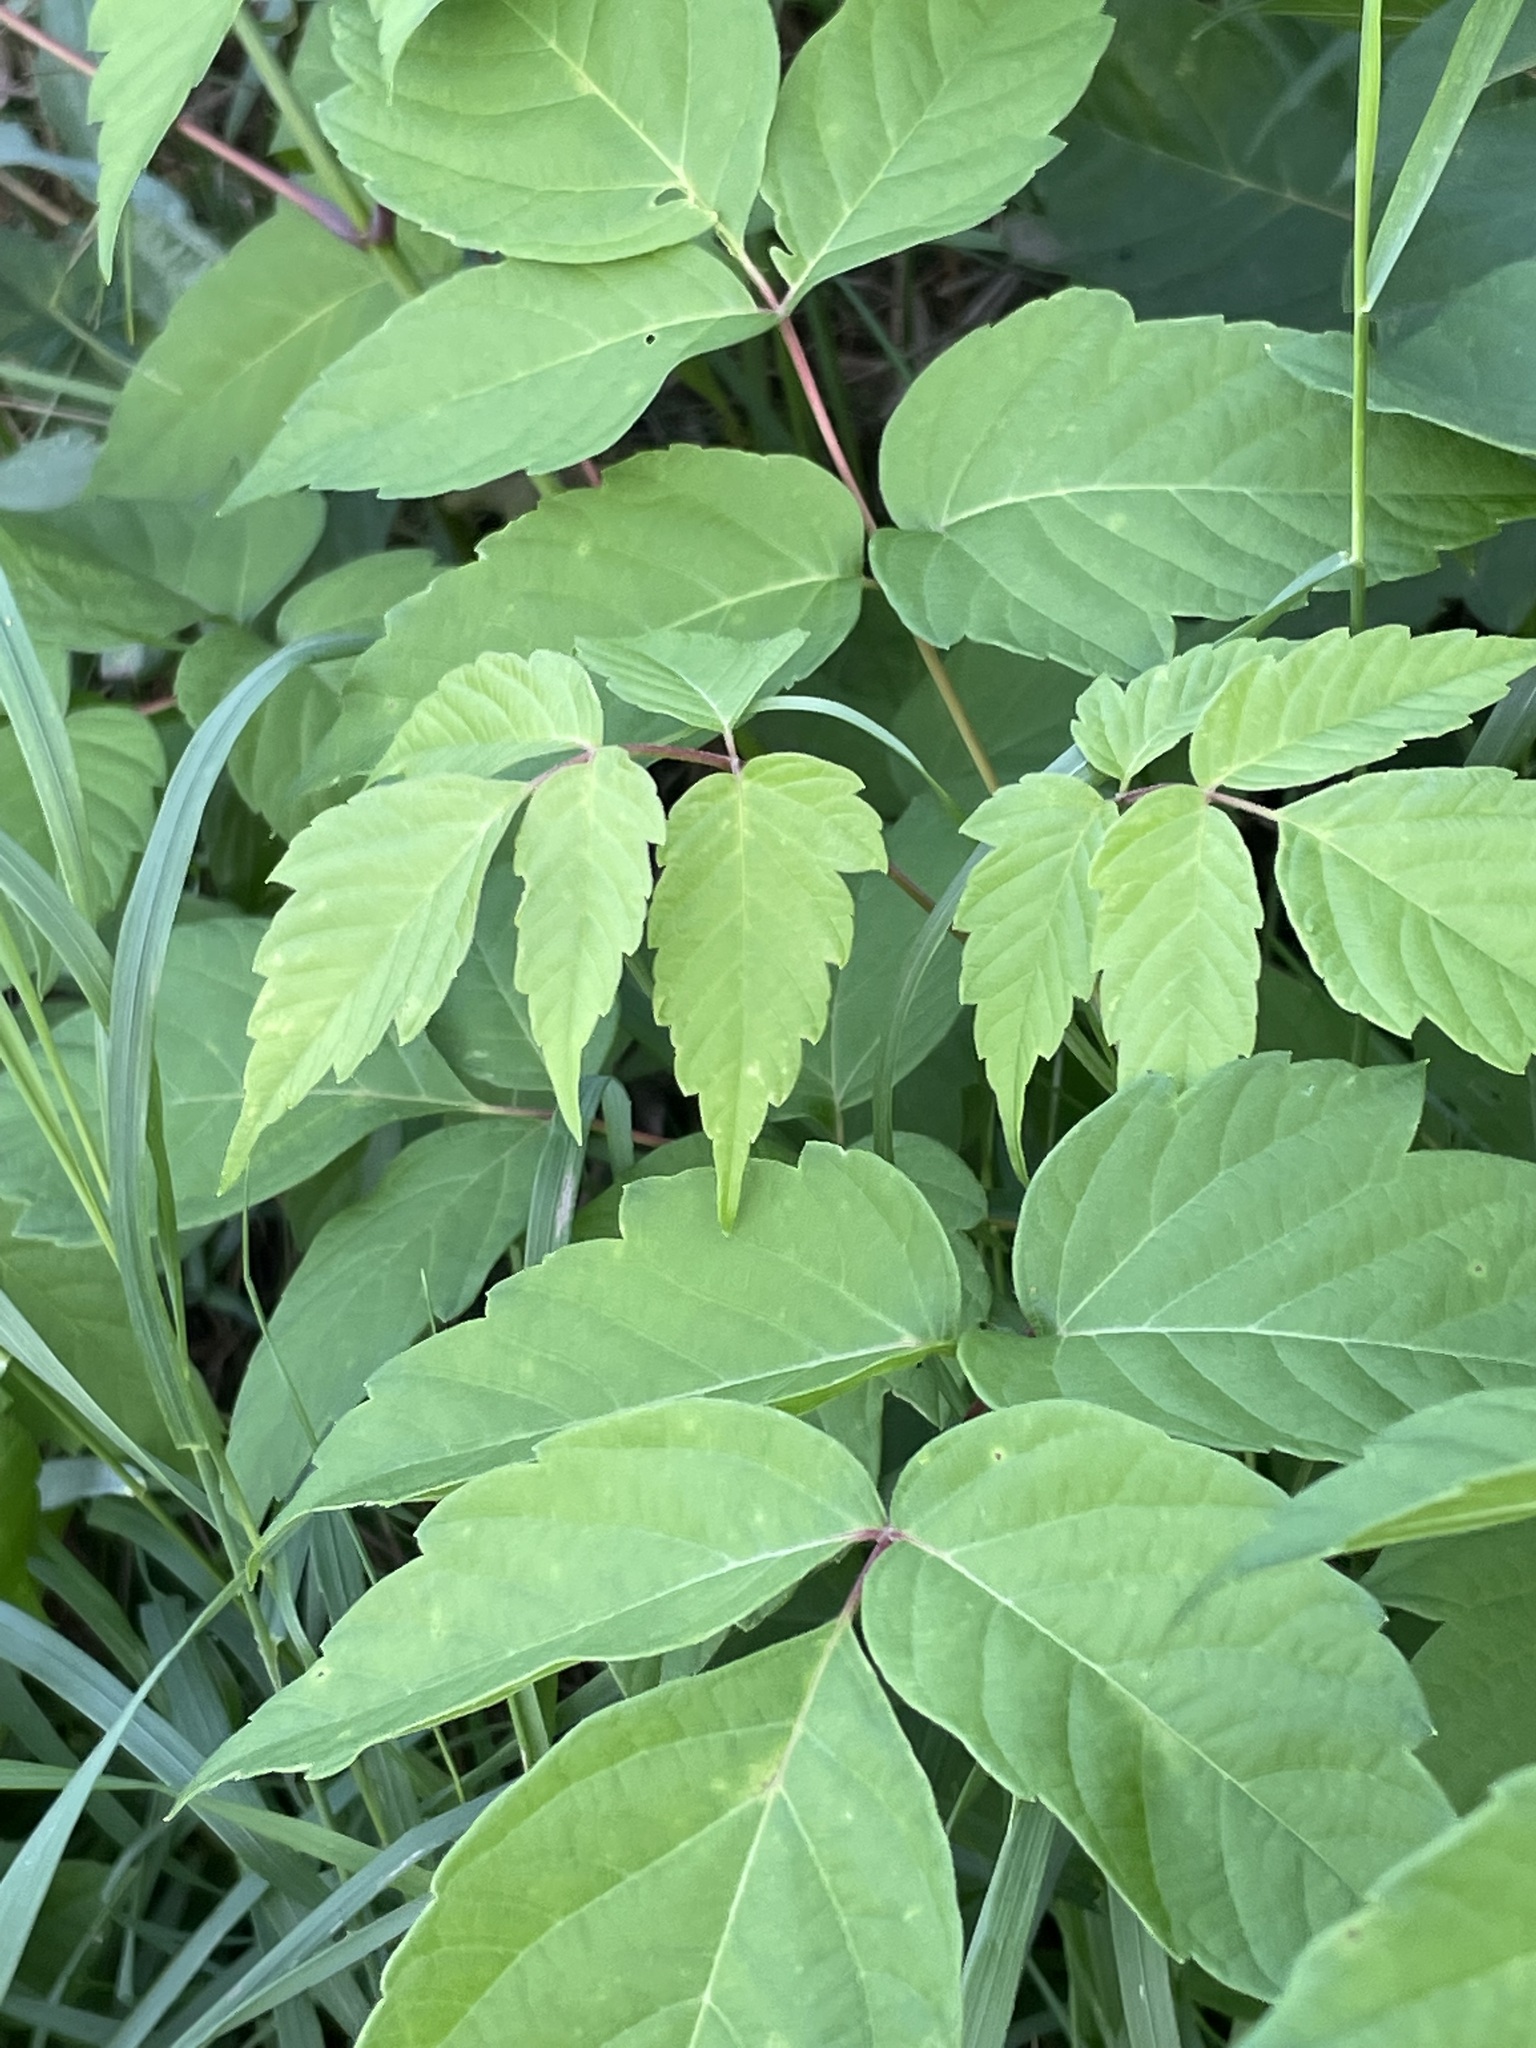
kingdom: Plantae
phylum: Tracheophyta
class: Magnoliopsida
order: Sapindales
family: Sapindaceae
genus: Acer
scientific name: Acer negundo
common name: Ashleaf maple
